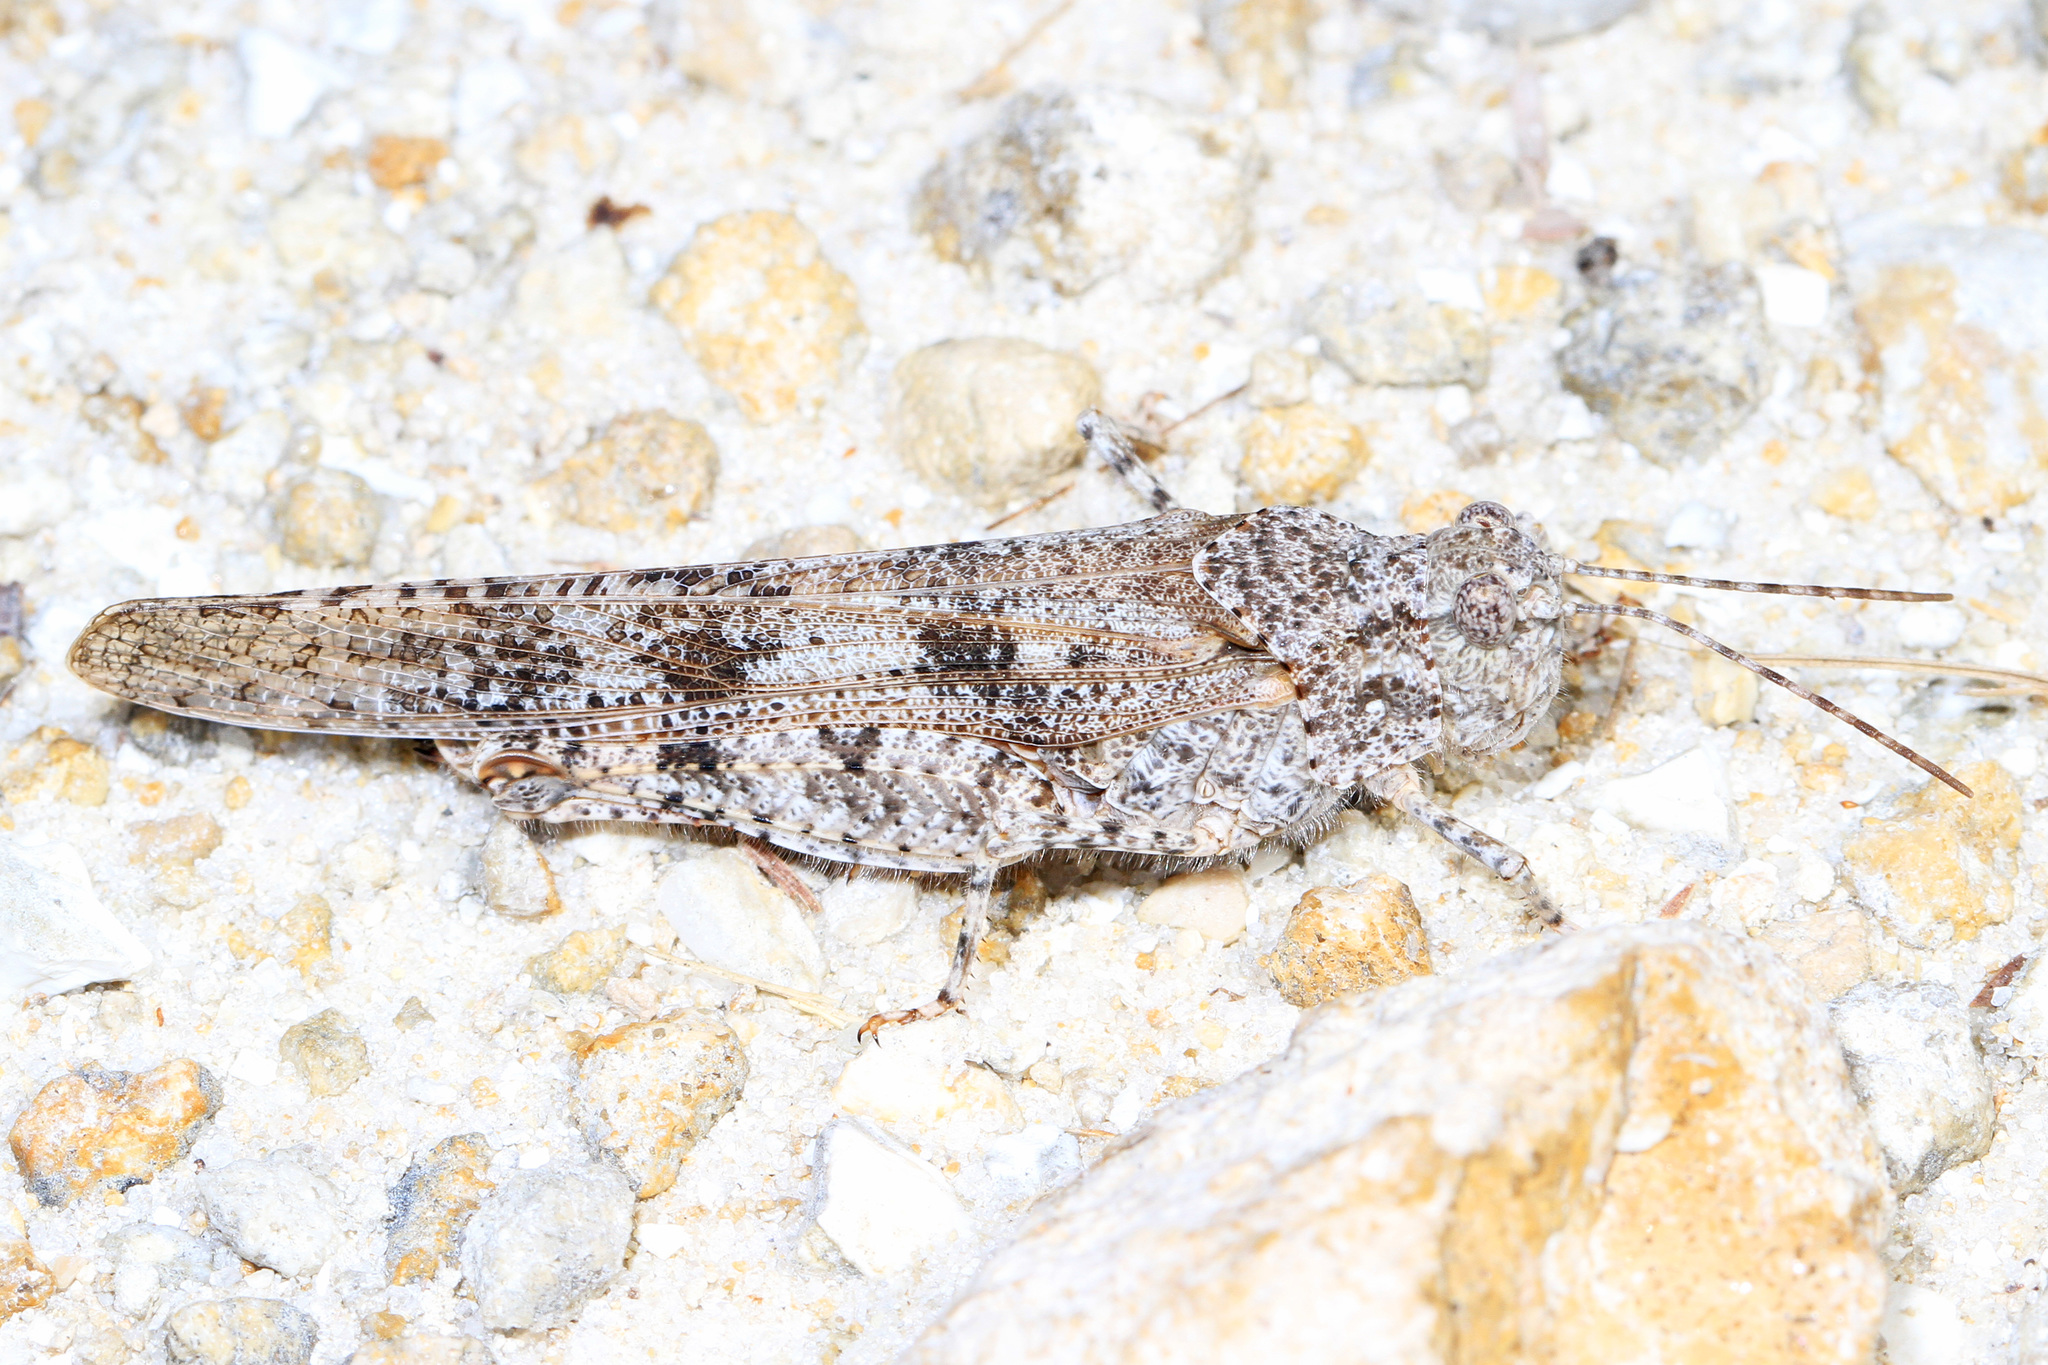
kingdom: Animalia
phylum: Arthropoda
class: Insecta
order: Orthoptera
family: Acrididae
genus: Trimerotropis
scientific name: Trimerotropis maritima
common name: Seaside locust
